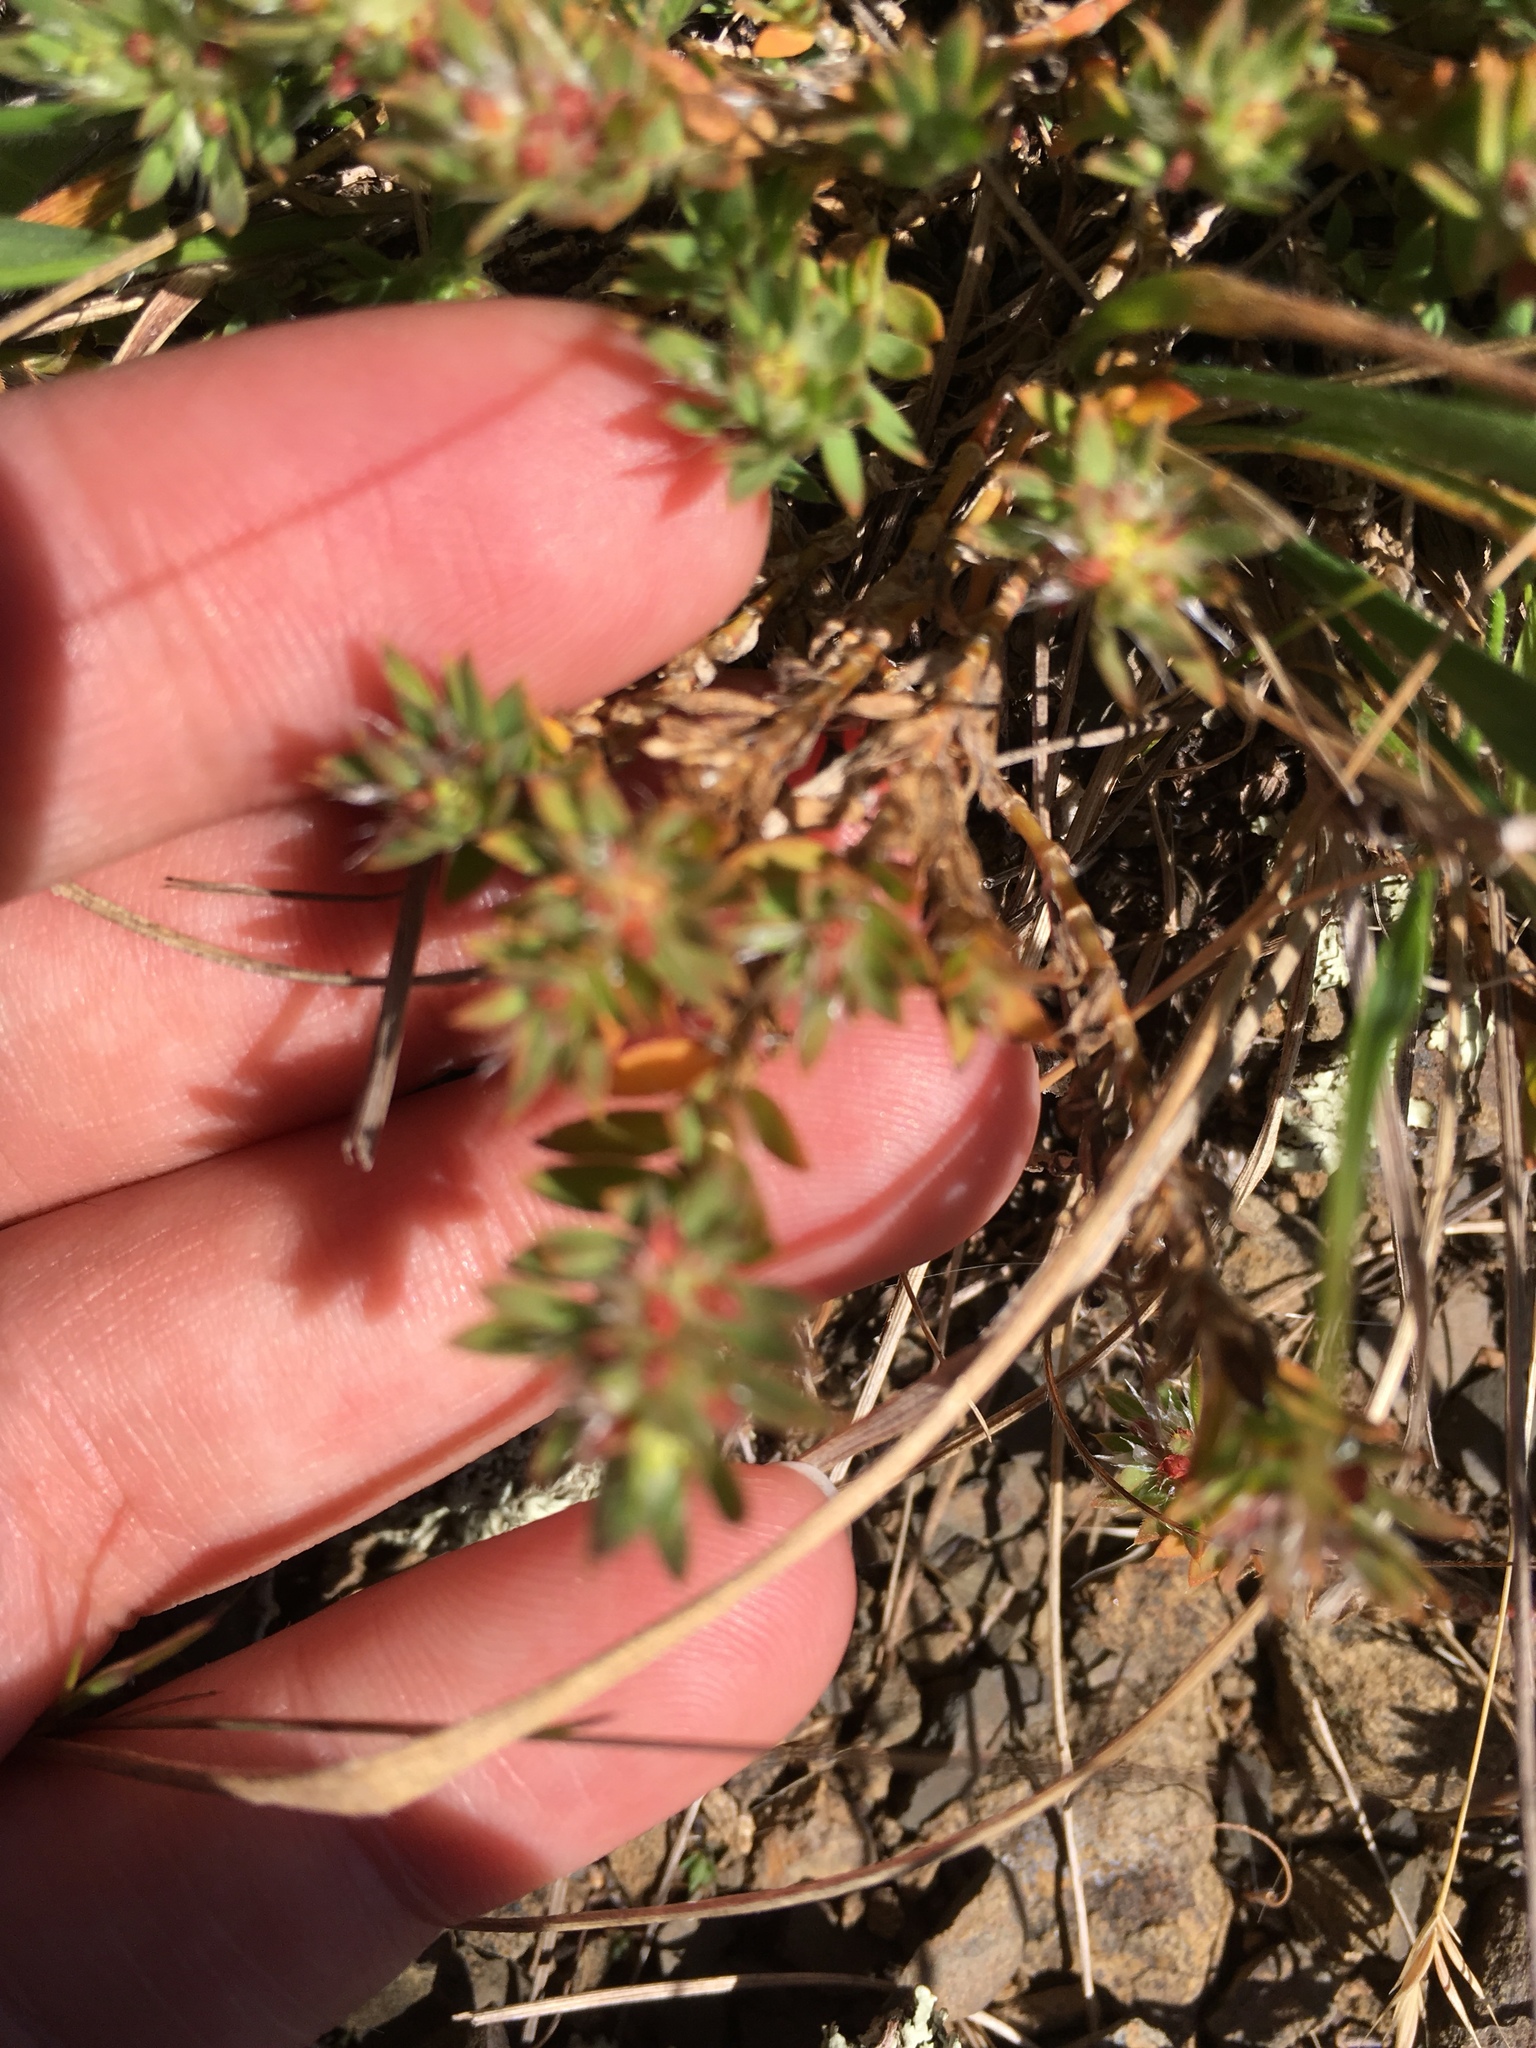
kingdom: Plantae
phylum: Tracheophyta
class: Magnoliopsida
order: Caryophyllales
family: Caryophyllaceae
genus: Cardionema
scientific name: Cardionema ramosissima
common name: Sandcarpet
